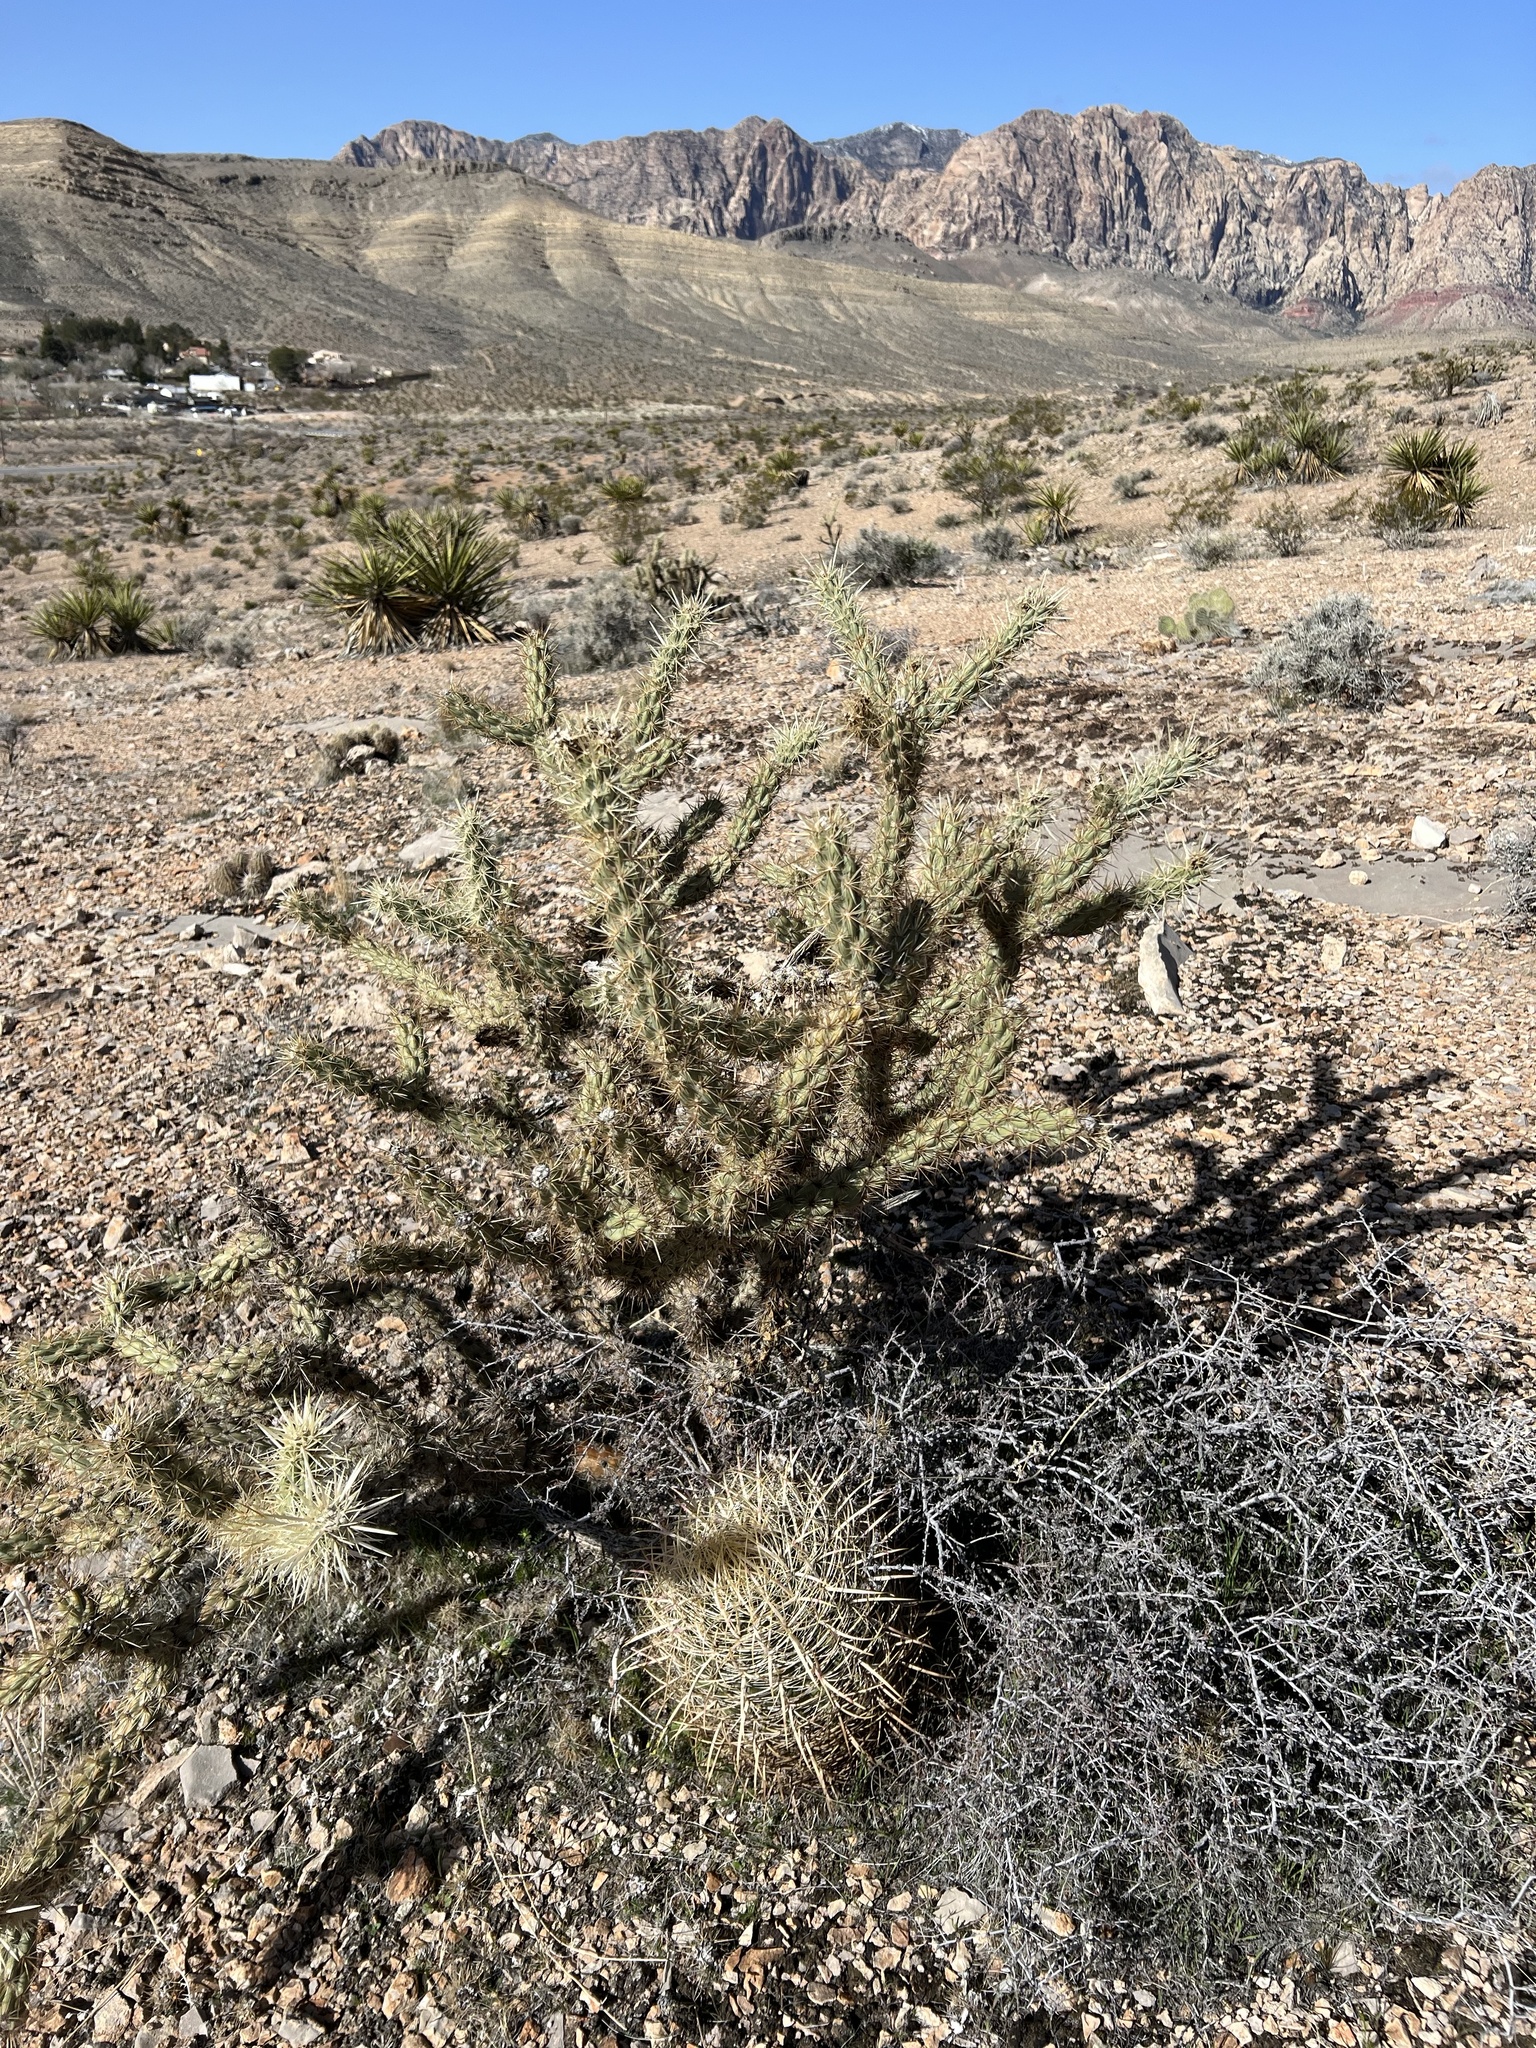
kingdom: Plantae
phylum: Tracheophyta
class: Magnoliopsida
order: Caryophyllales
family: Cactaceae
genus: Cylindropuntia
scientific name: Cylindropuntia acanthocarpa
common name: Buckhorn cholla
